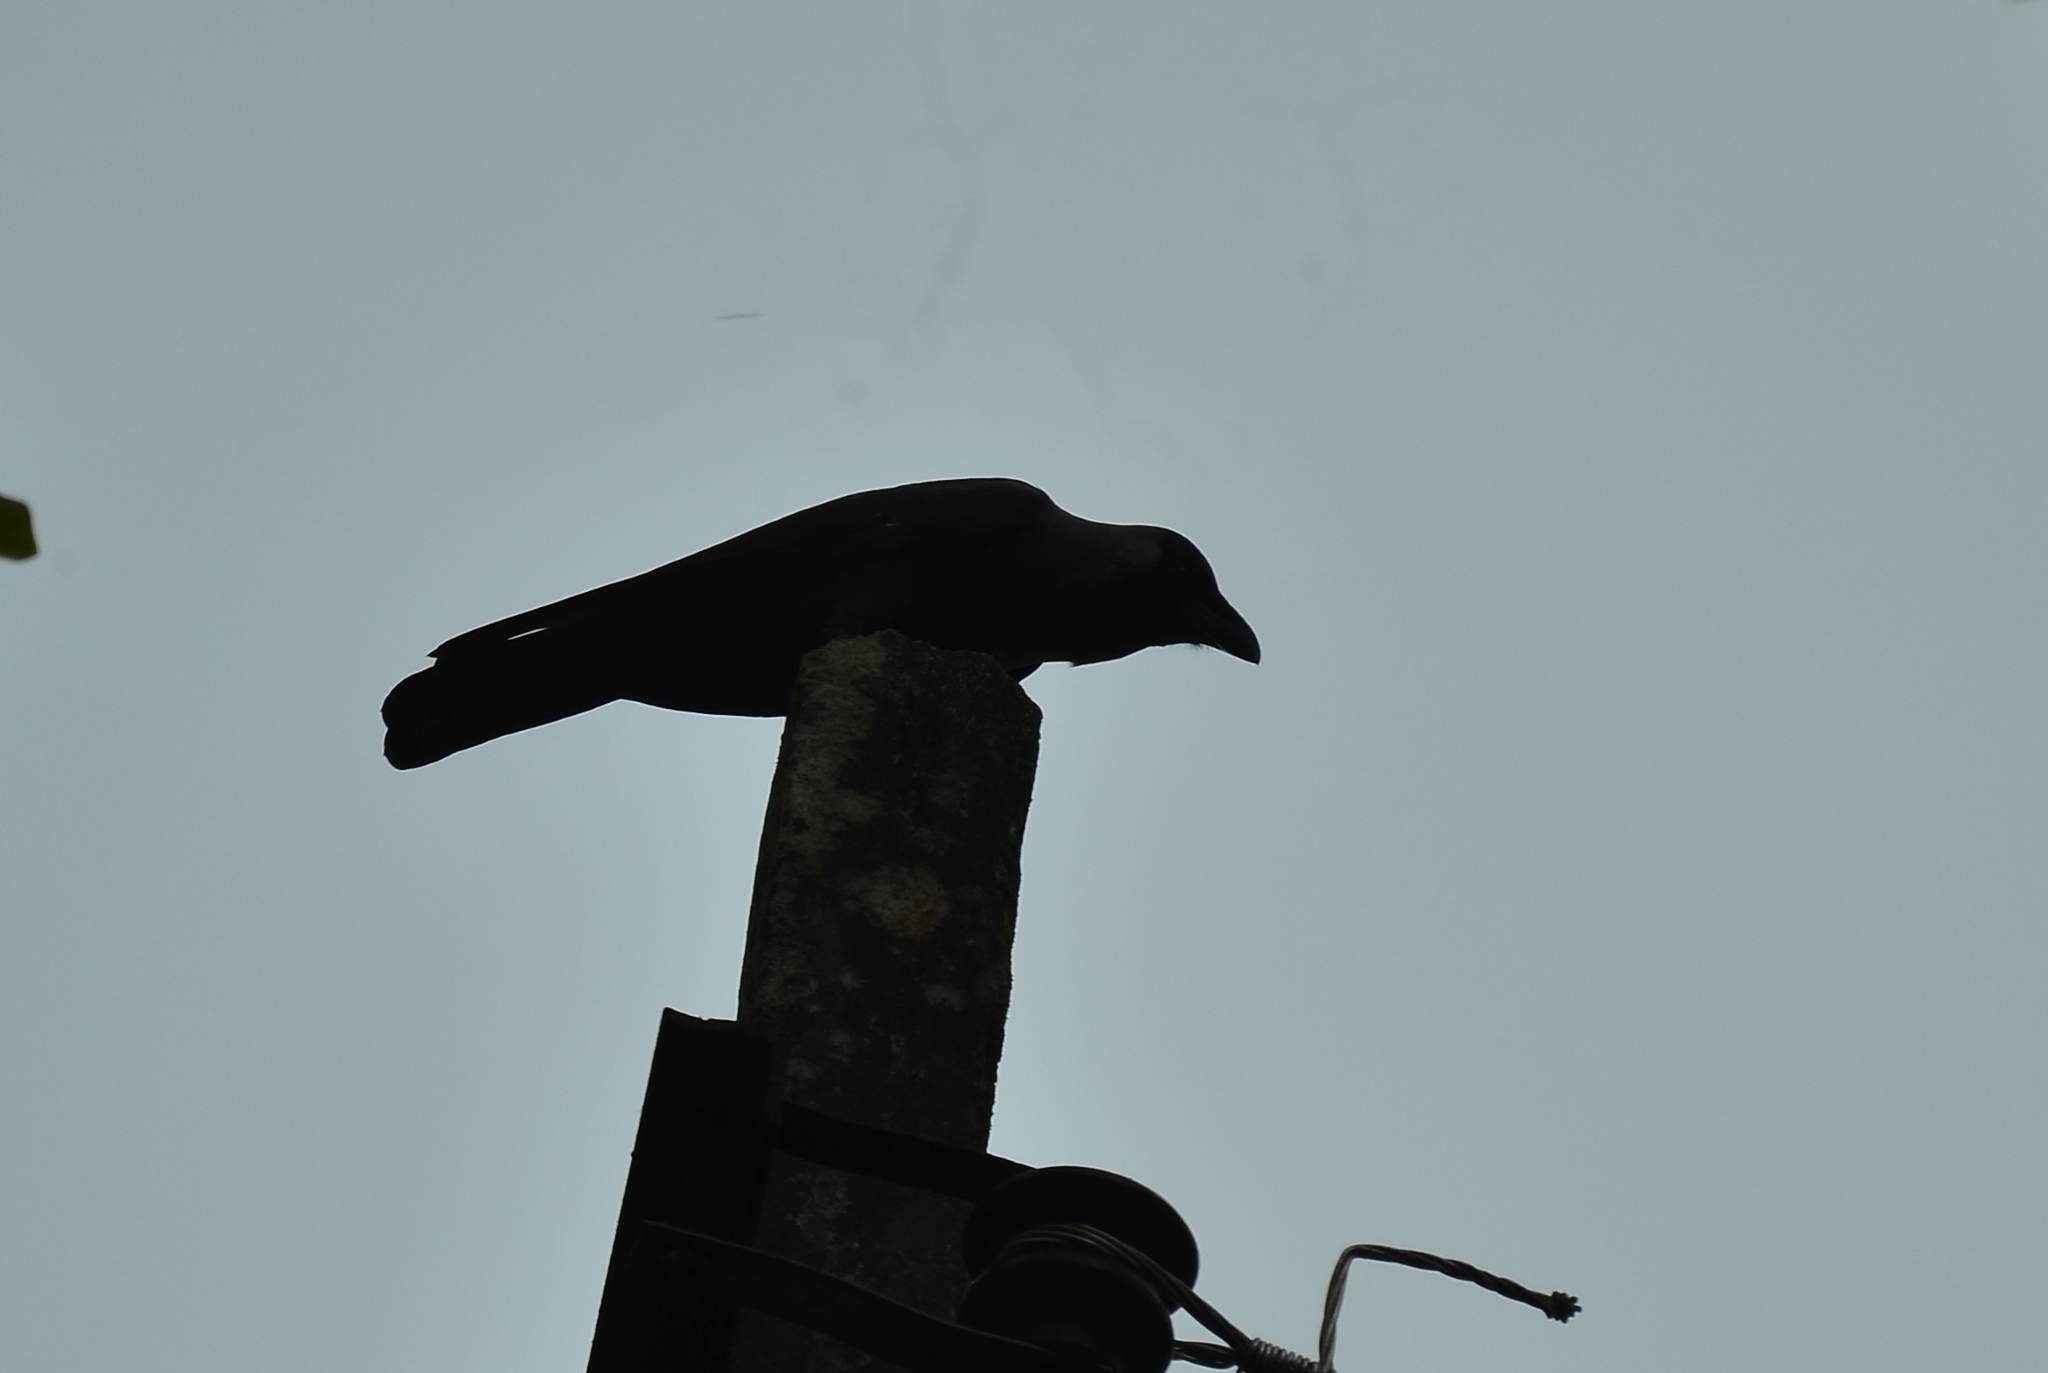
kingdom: Animalia
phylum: Chordata
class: Aves
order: Passeriformes
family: Corvidae
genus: Corvus
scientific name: Corvus splendens
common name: House crow
